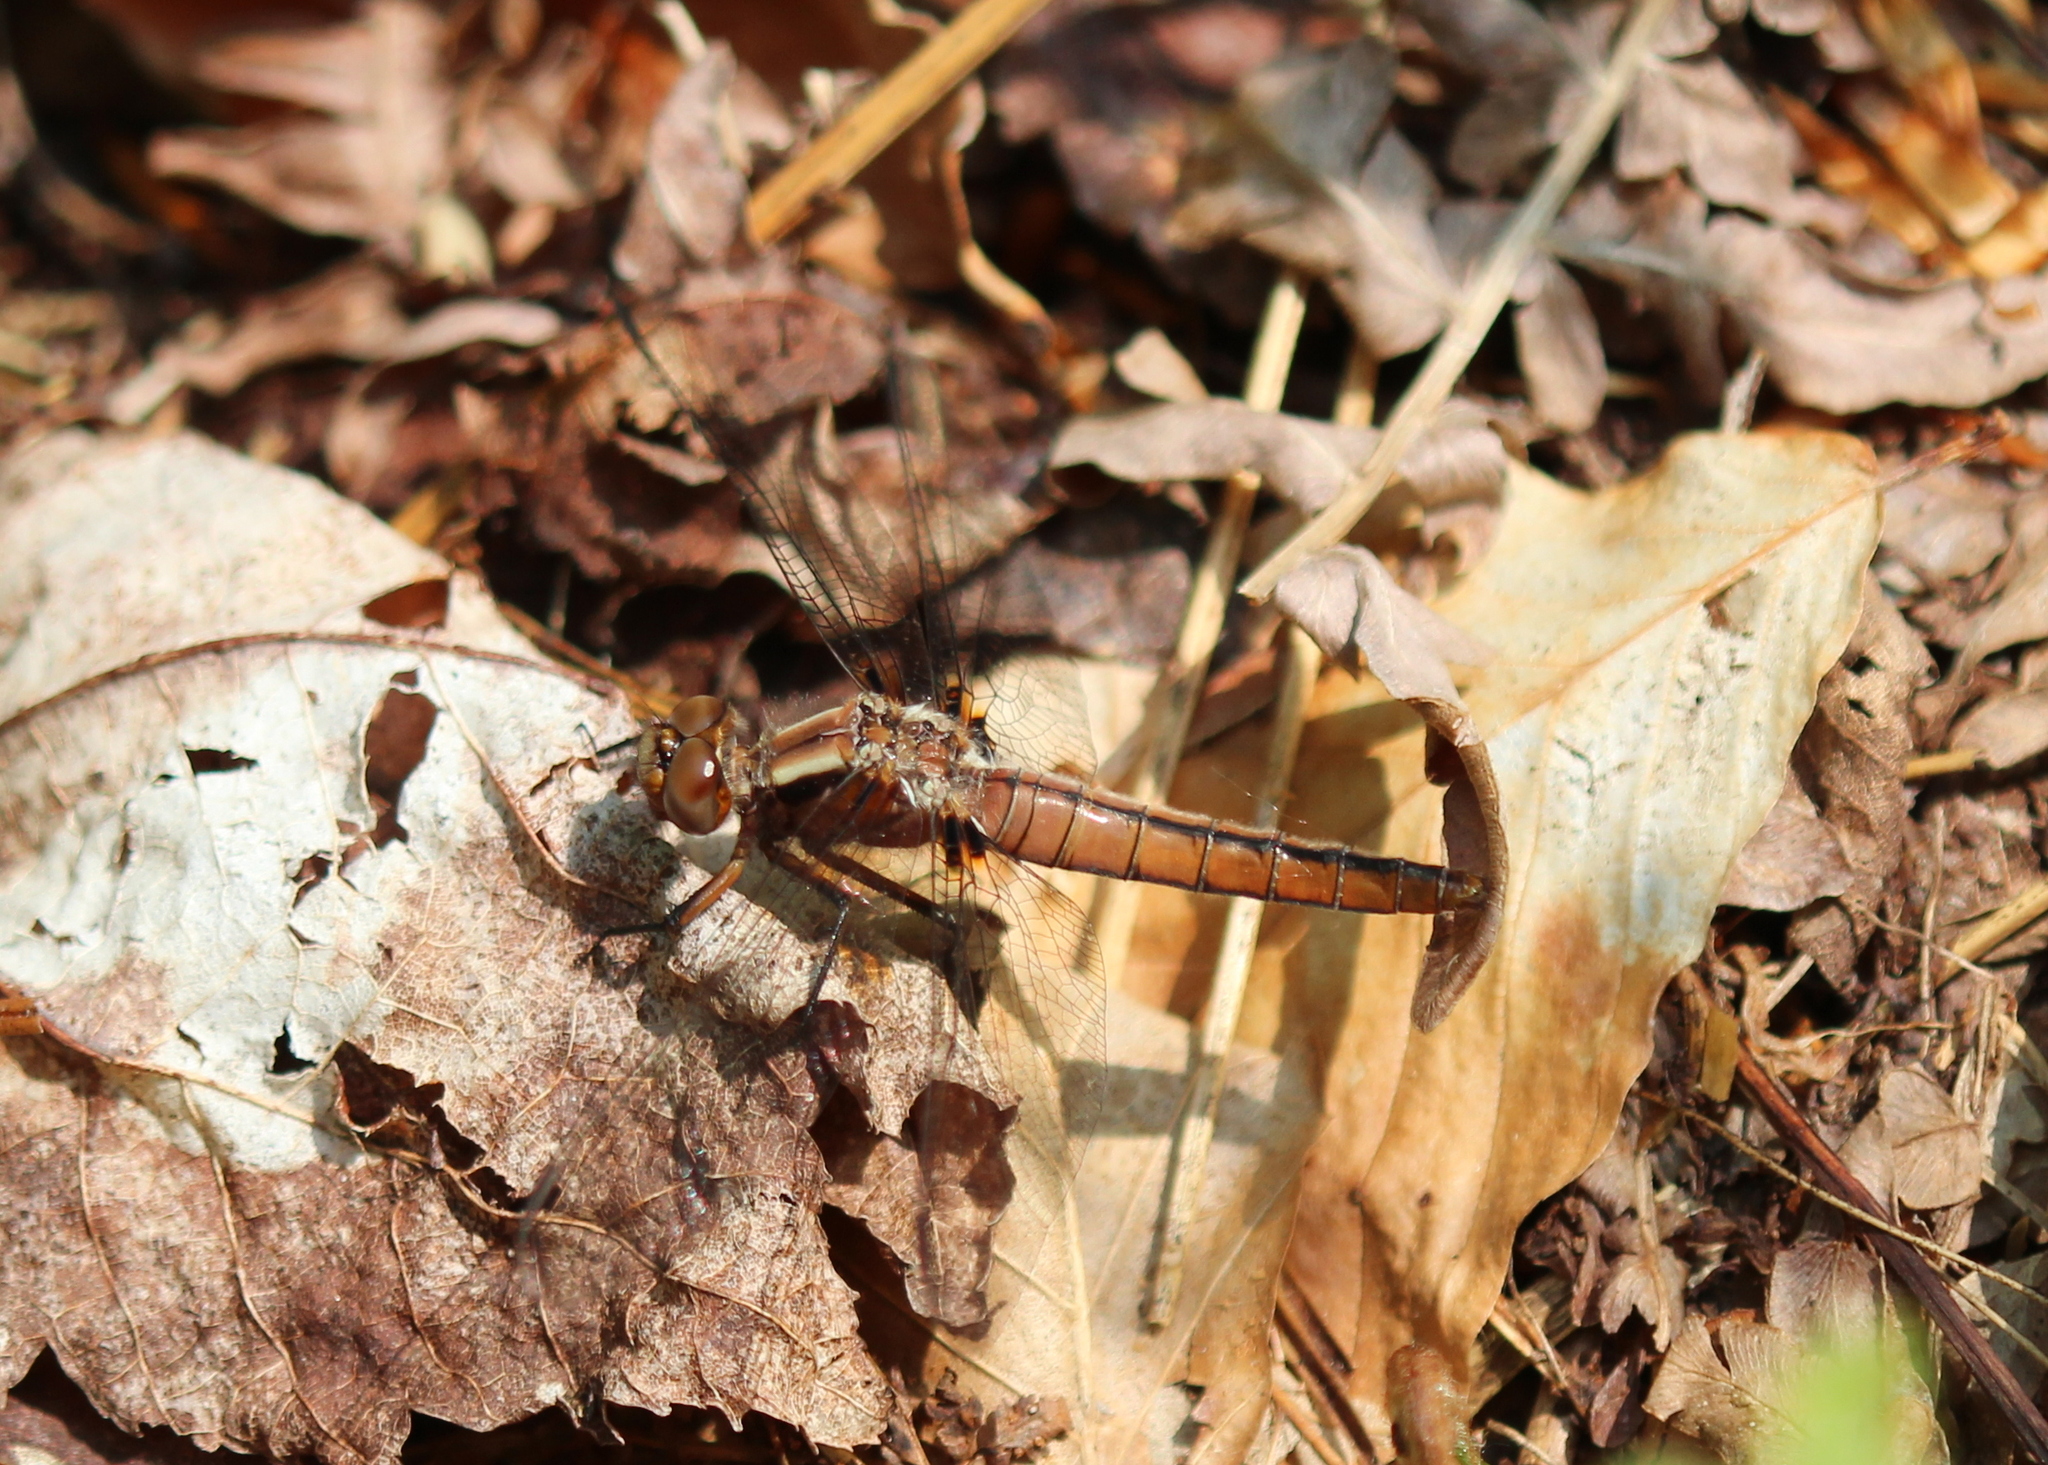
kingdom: Animalia
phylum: Arthropoda
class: Insecta
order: Odonata
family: Libellulidae
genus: Ladona
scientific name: Ladona julia
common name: Chalk-fronted corporal
